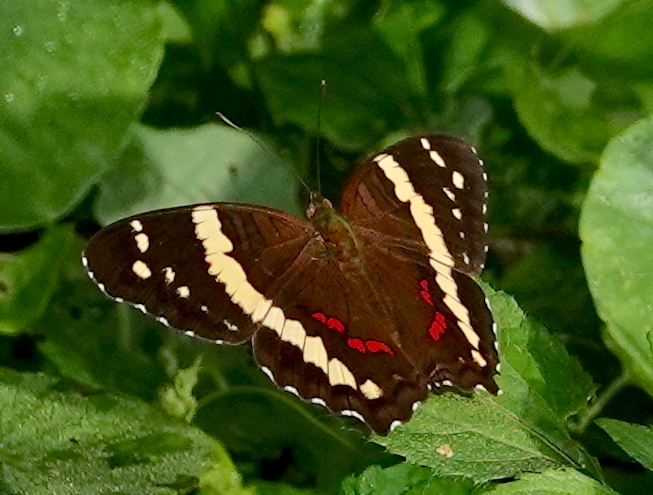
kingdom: Animalia
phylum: Arthropoda
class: Insecta
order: Lepidoptera
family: Nymphalidae
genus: Anartia
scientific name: Anartia fatima
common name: Banded peacock
